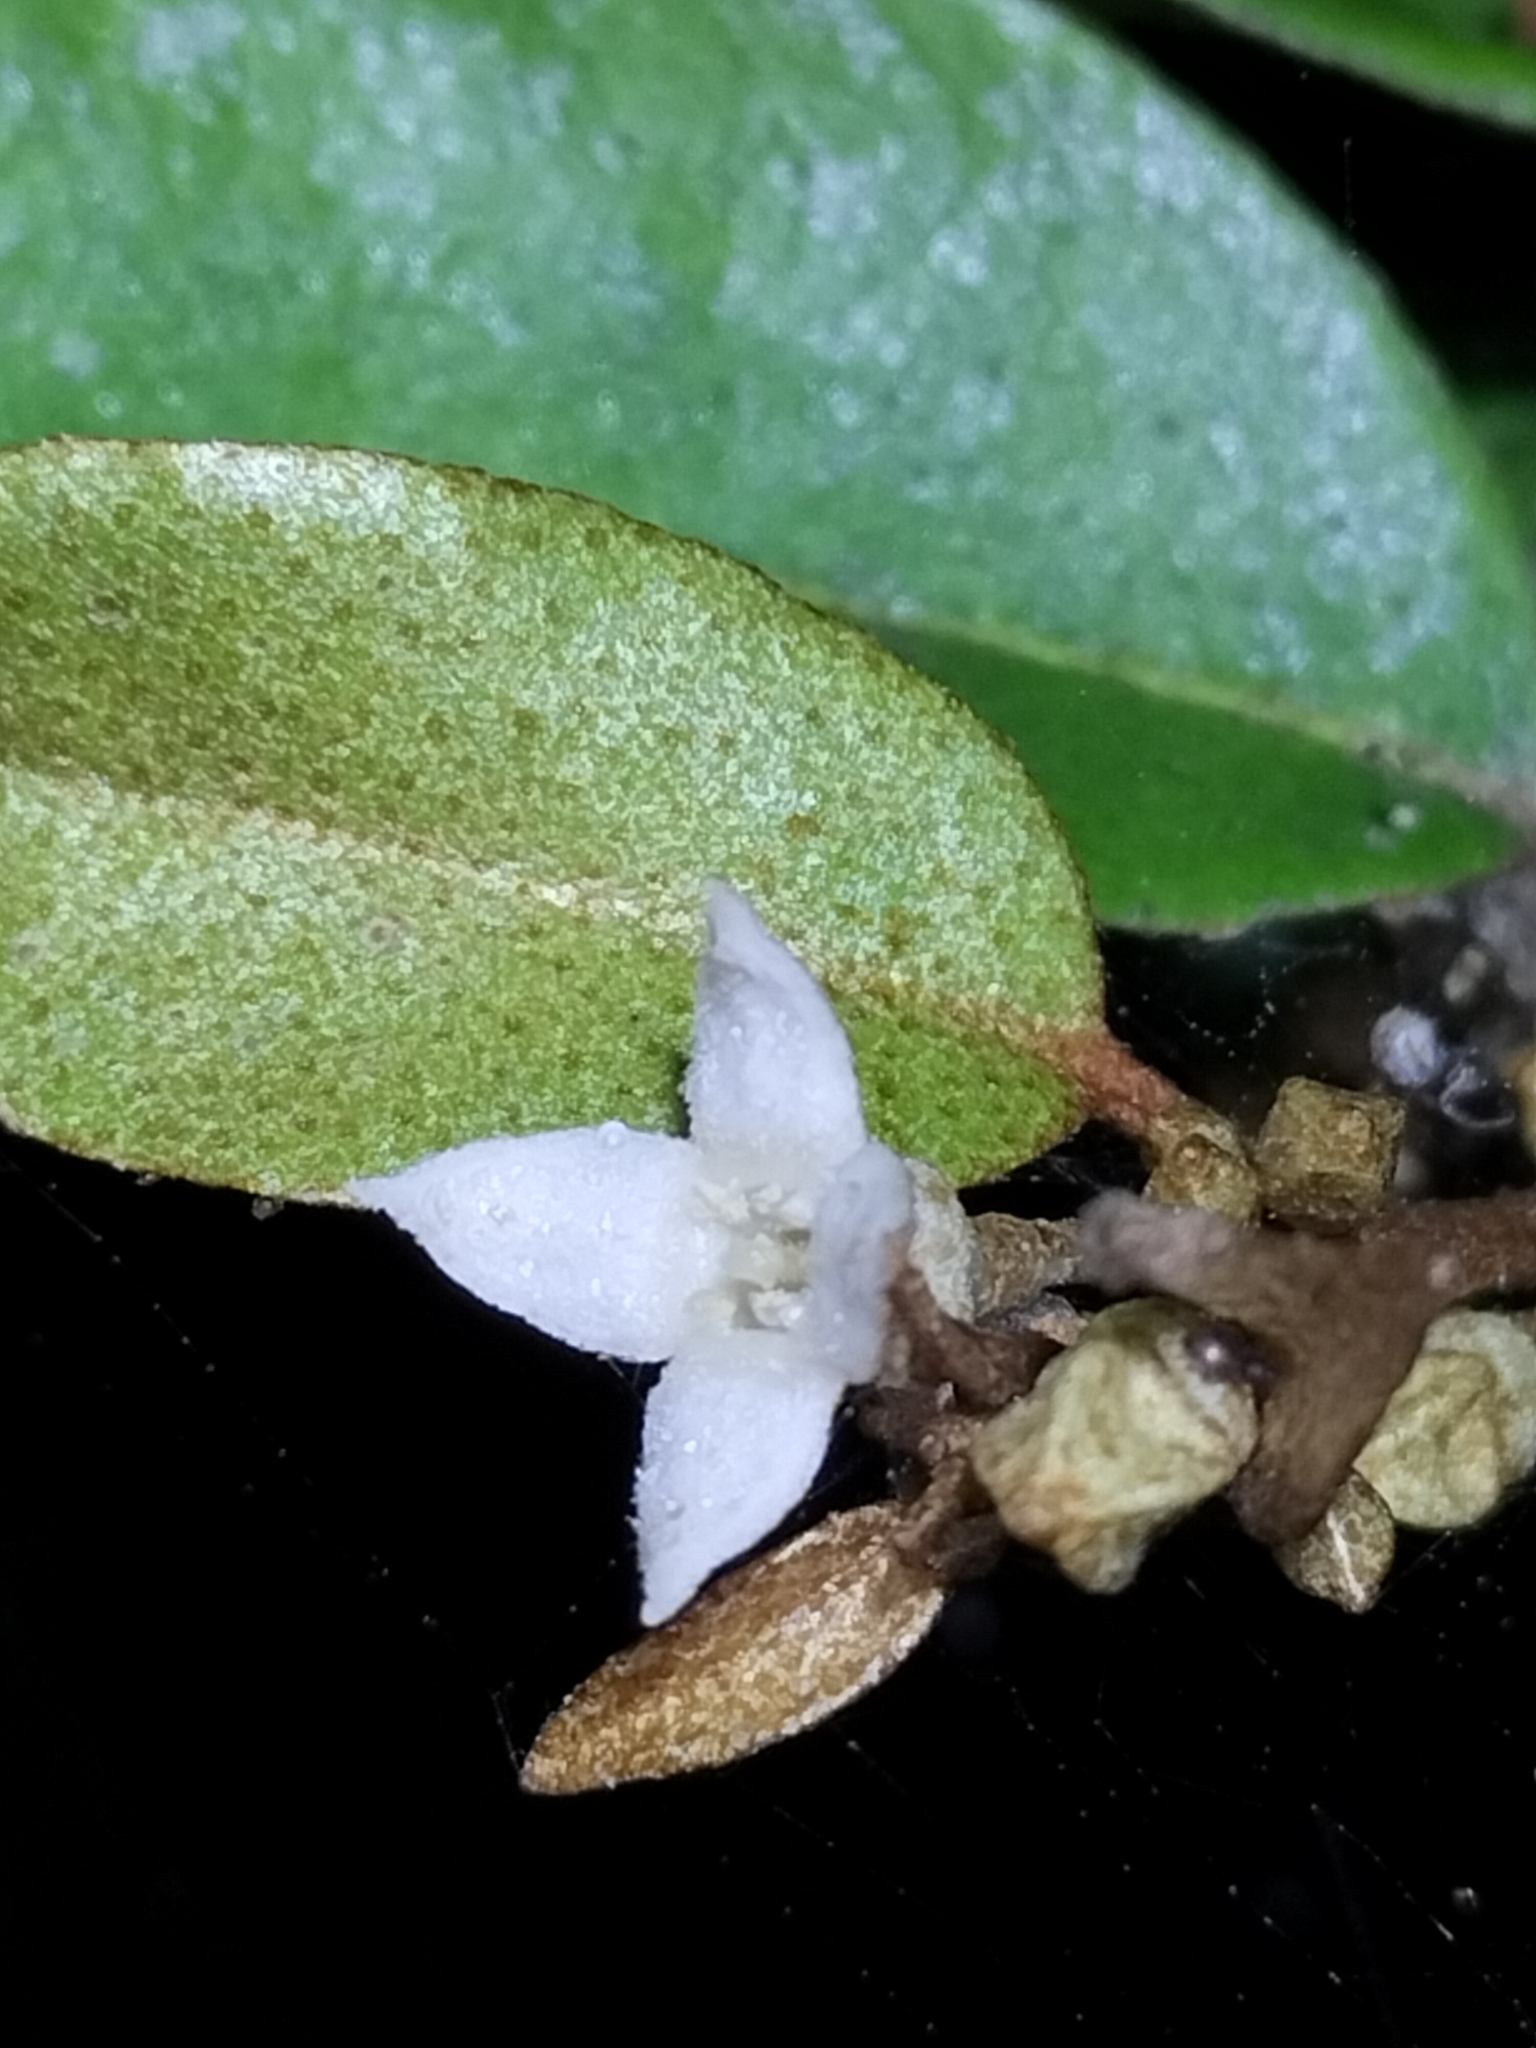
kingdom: Plantae
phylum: Tracheophyta
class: Magnoliopsida
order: Rosales
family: Elaeagnaceae
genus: Elaeagnus
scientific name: Elaeagnus triflora
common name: Millaa millaa-vine
